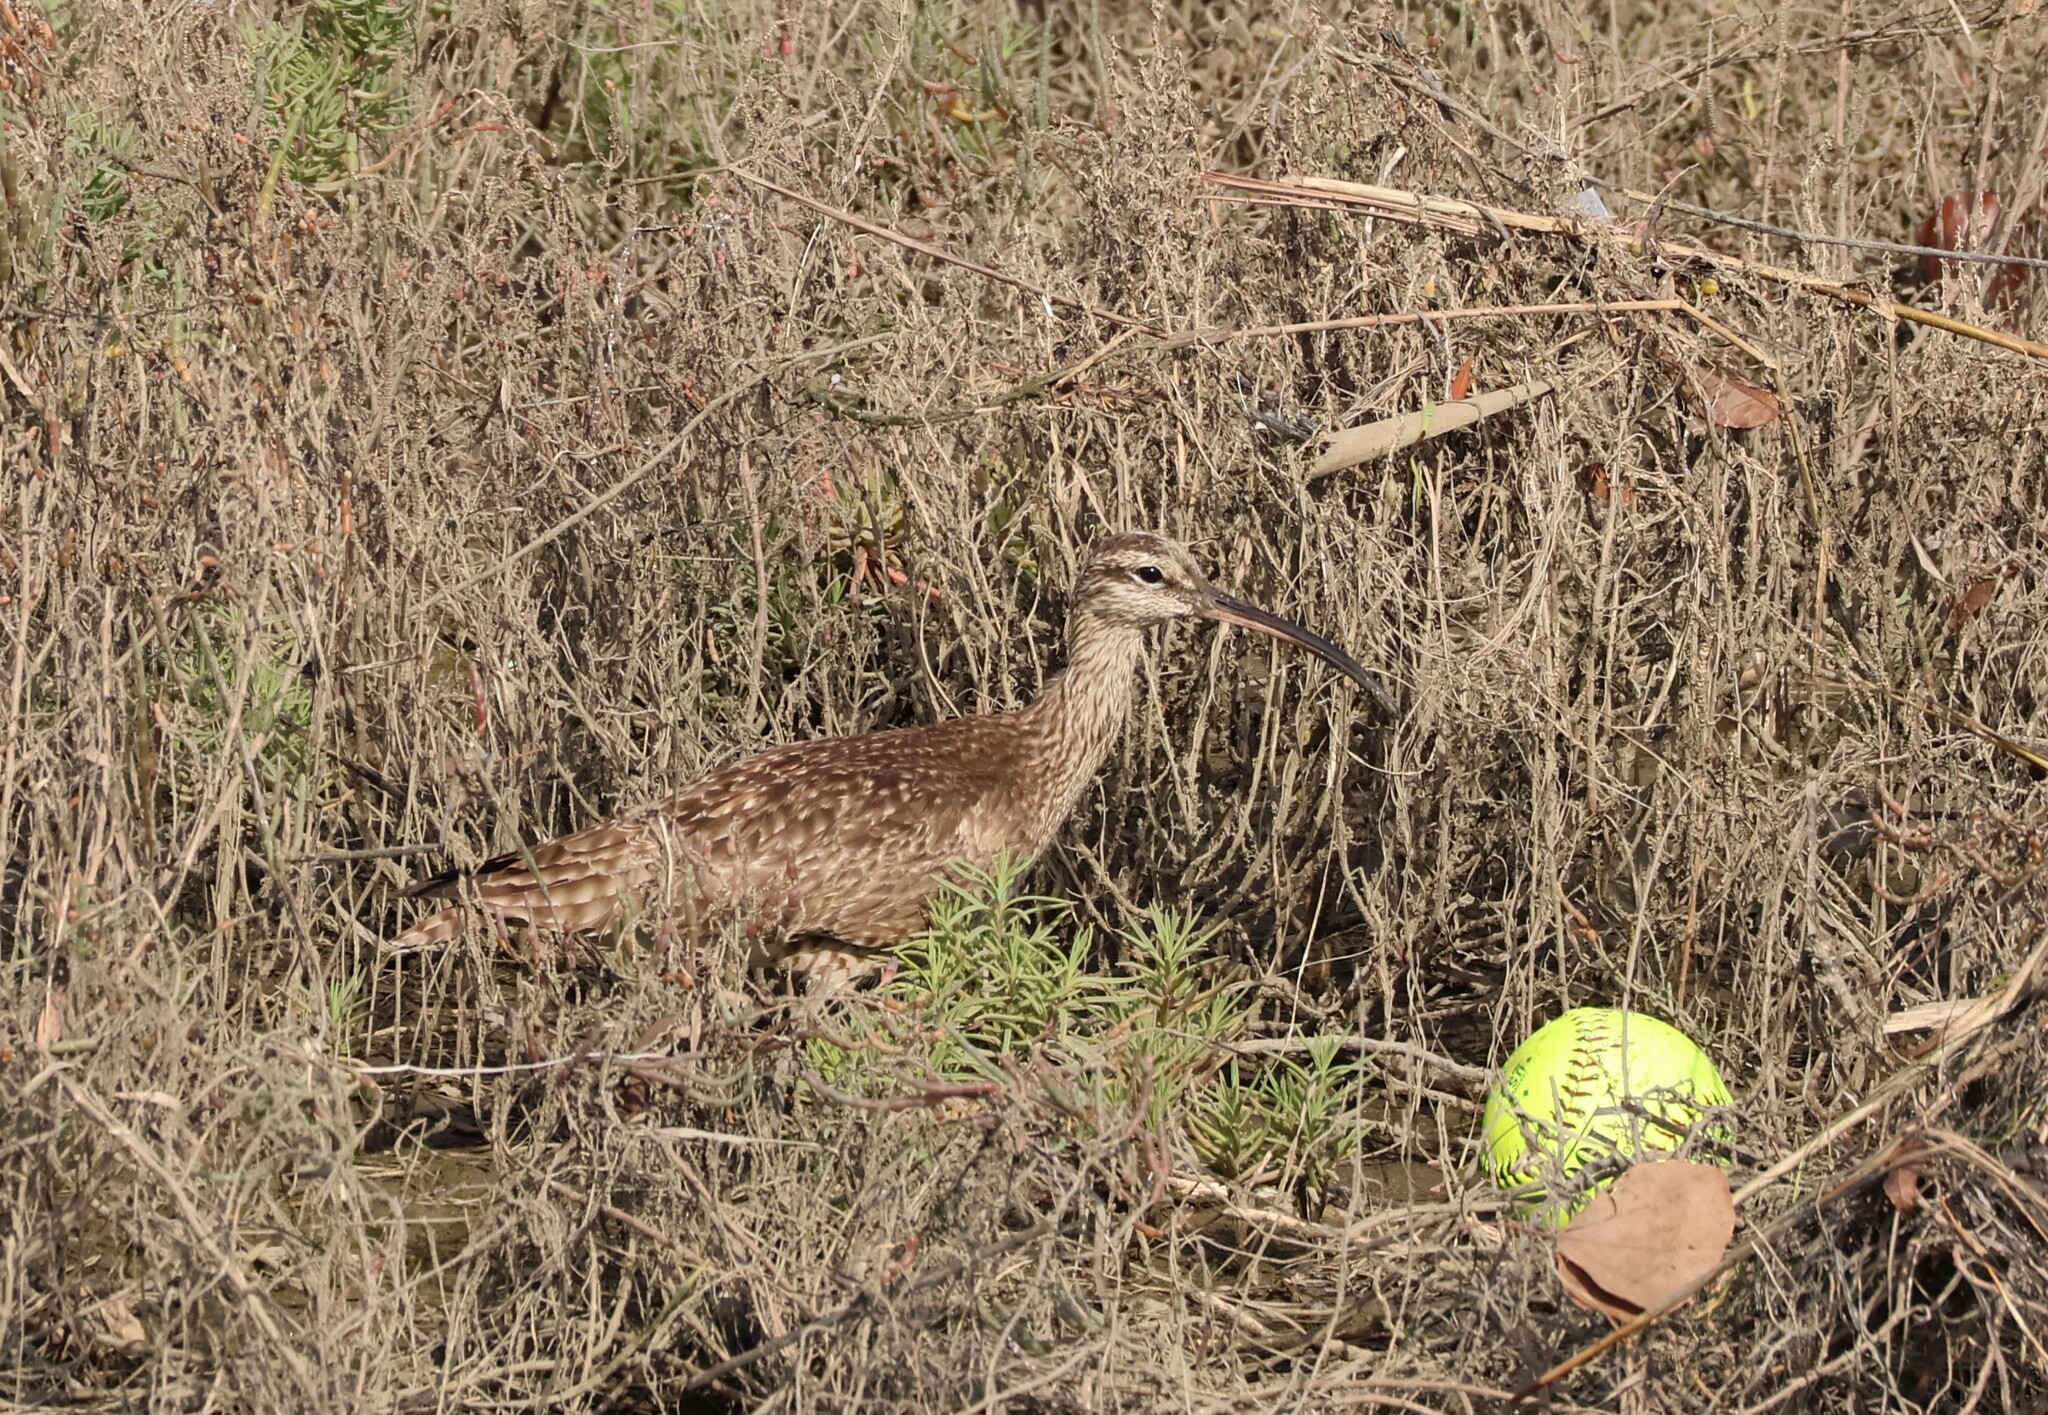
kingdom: Animalia
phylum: Chordata
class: Aves
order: Charadriiformes
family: Scolopacidae
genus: Numenius
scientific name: Numenius phaeopus
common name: Whimbrel
